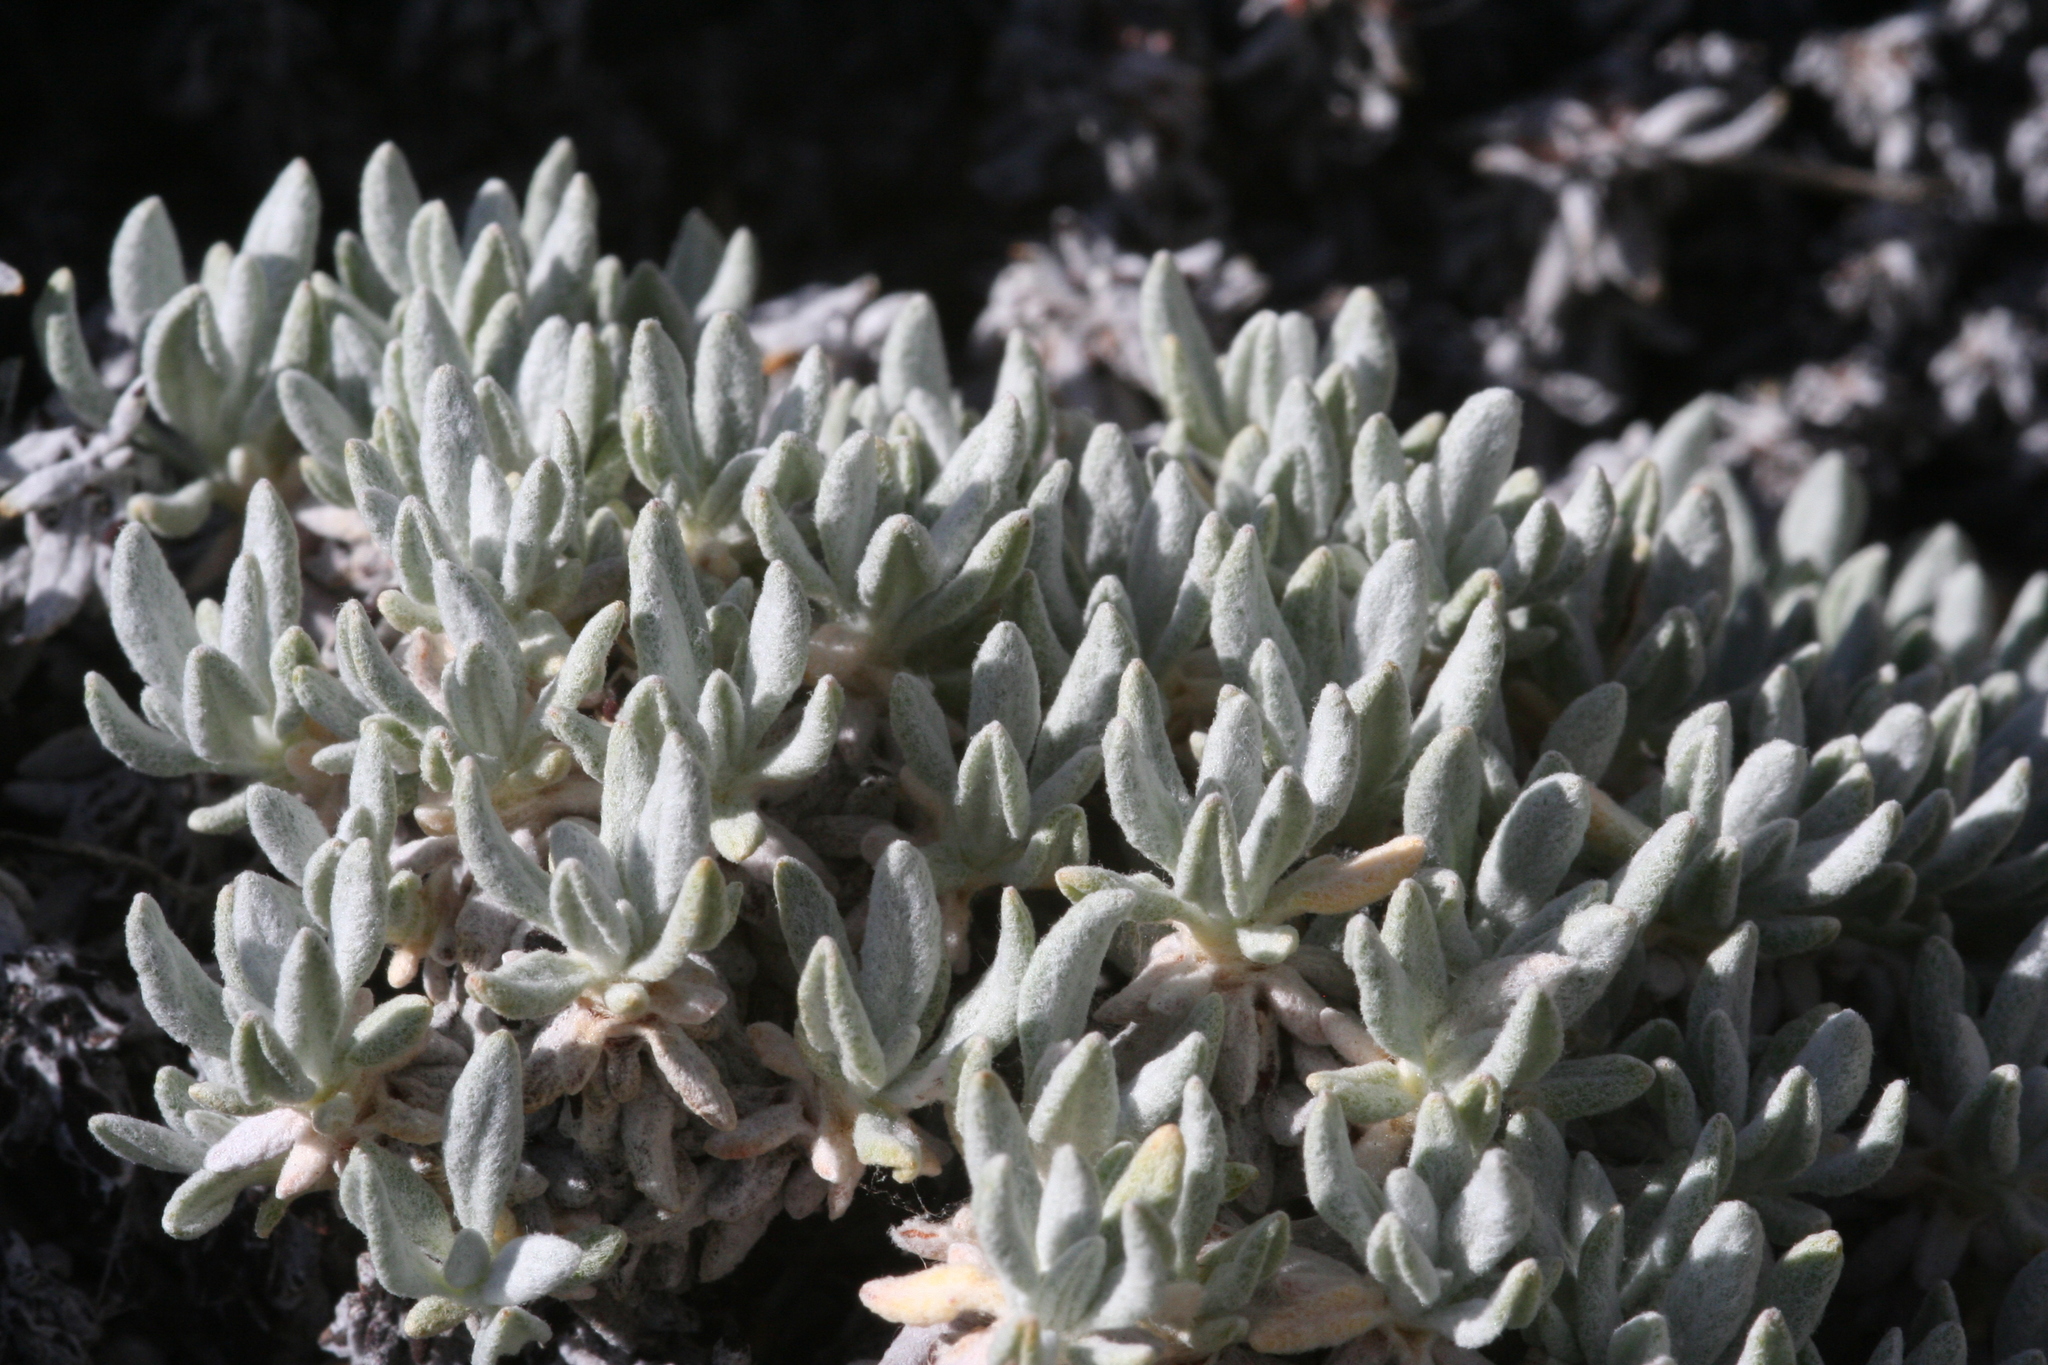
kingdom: Plantae
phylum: Tracheophyta
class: Magnoliopsida
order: Caryophyllales
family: Polygonaceae
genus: Eriogonum
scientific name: Eriogonum wrightii
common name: Bastard-sage
